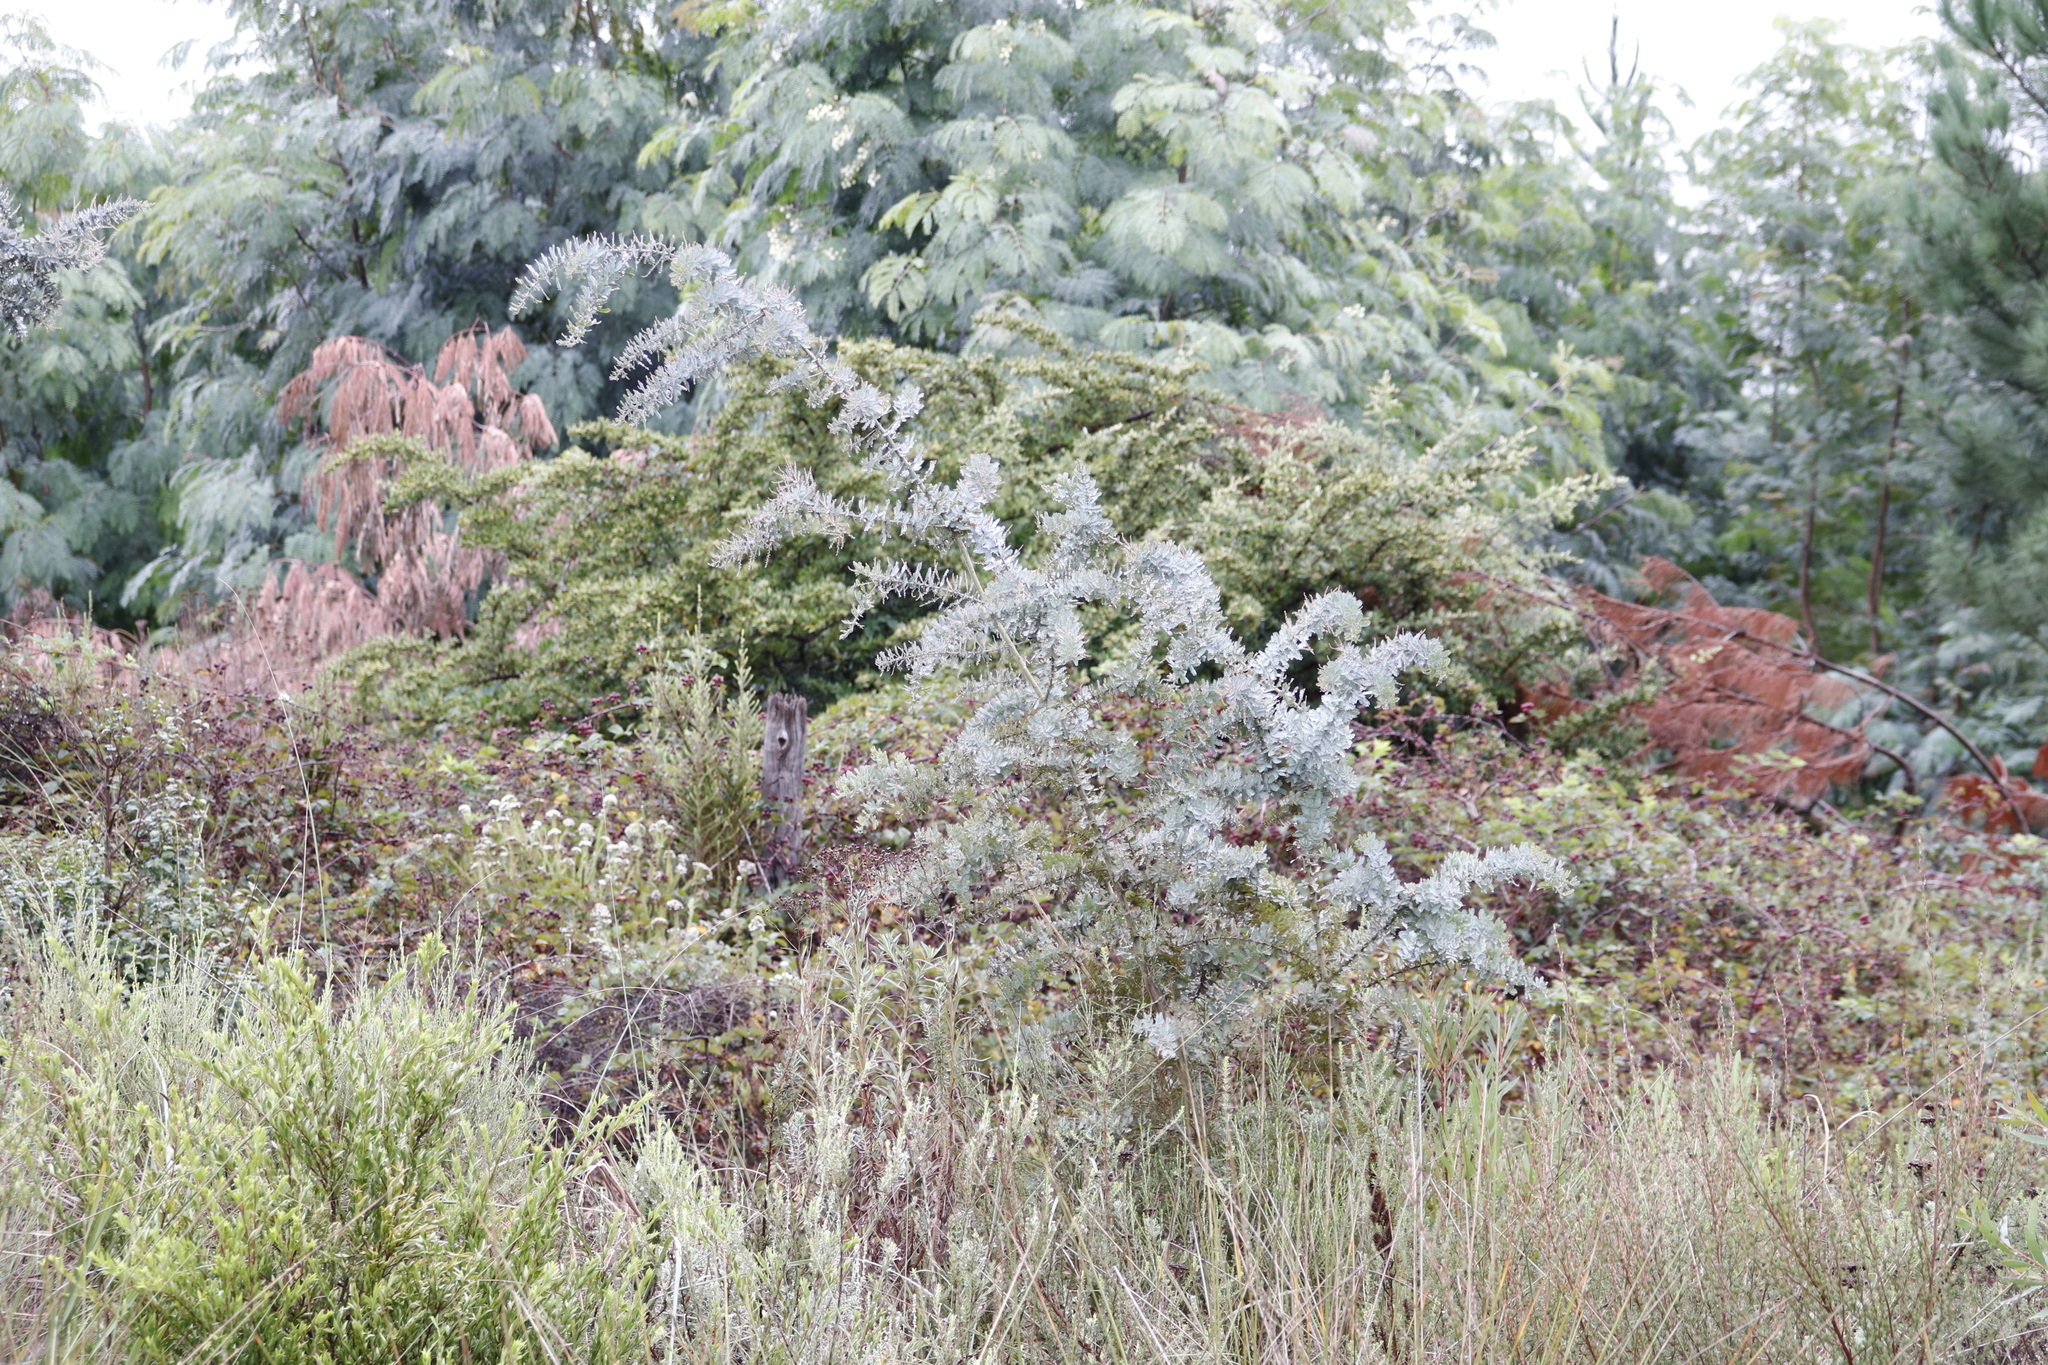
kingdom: Plantae
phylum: Tracheophyta
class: Magnoliopsida
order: Fabales
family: Fabaceae
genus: Acacia
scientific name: Acacia baileyana
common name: Cootamundra wattle
